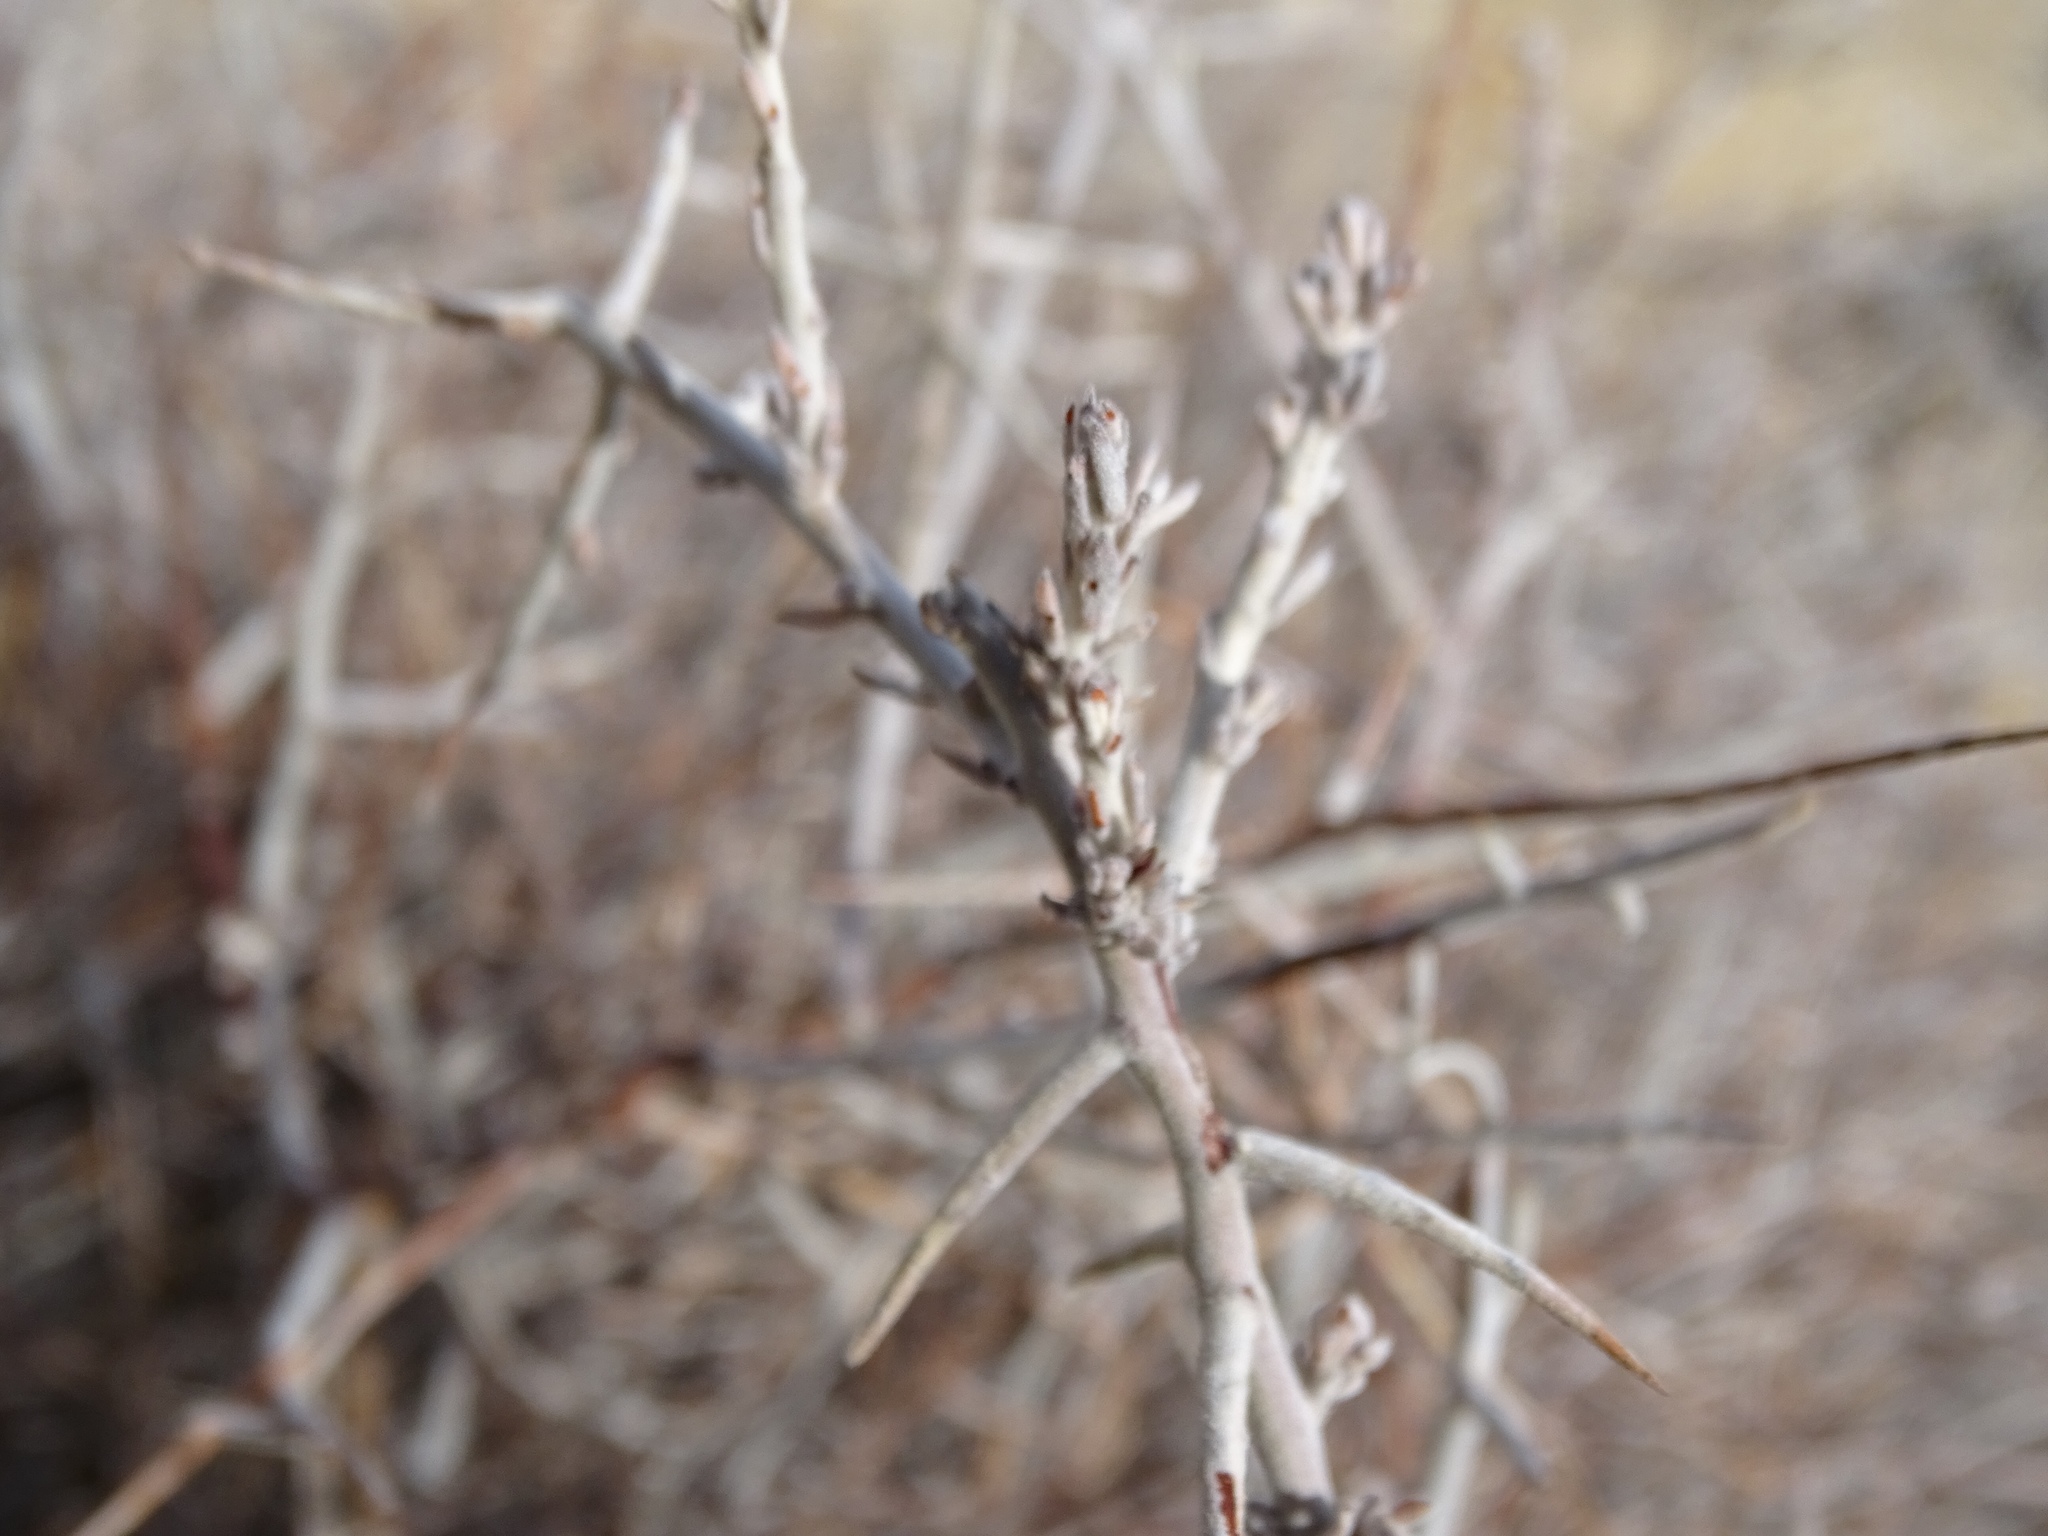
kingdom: Plantae
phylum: Tracheophyta
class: Magnoliopsida
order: Zygophyllales
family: Krameriaceae
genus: Krameria
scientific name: Krameria bicolor
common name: White ratany
